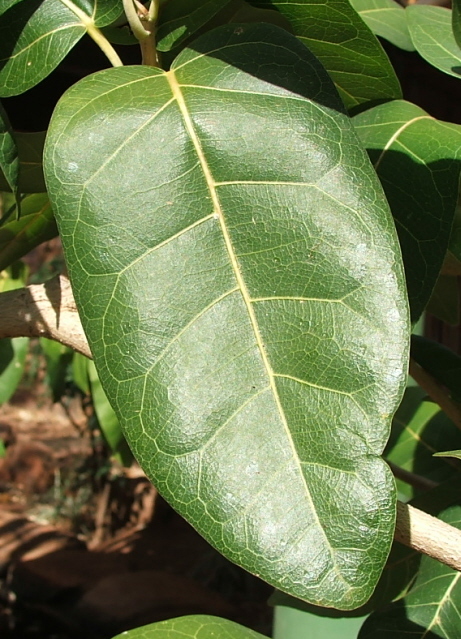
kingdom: Plantae
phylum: Tracheophyta
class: Magnoliopsida
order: Rosales
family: Moraceae
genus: Ficus
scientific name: Ficus ingens
